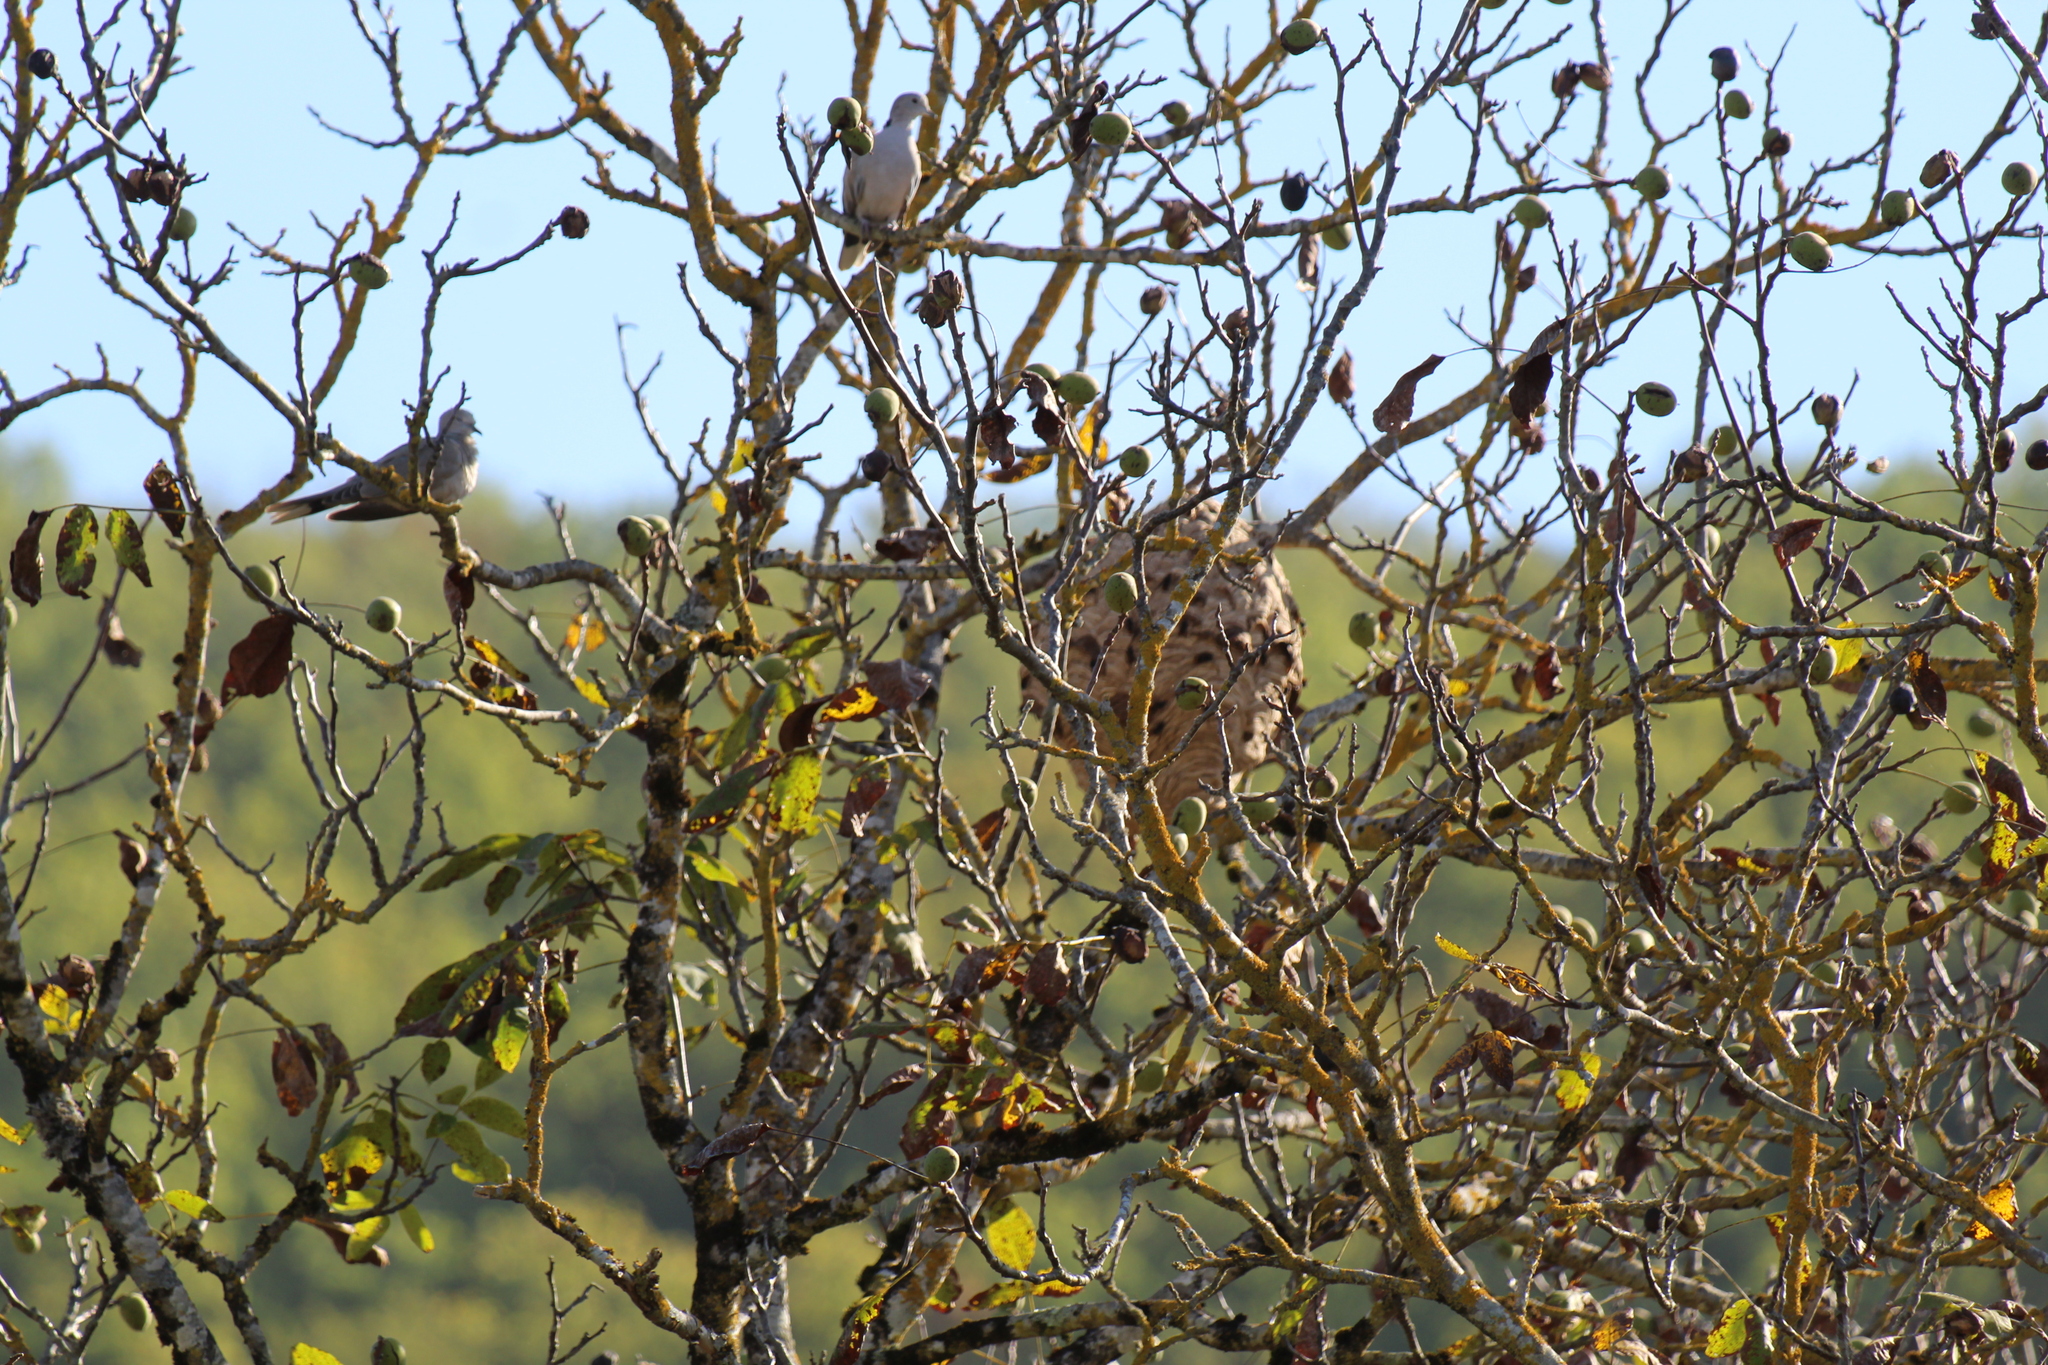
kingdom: Animalia
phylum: Arthropoda
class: Insecta
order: Hymenoptera
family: Vespidae
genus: Vespa
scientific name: Vespa velutina
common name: Asian hornet
